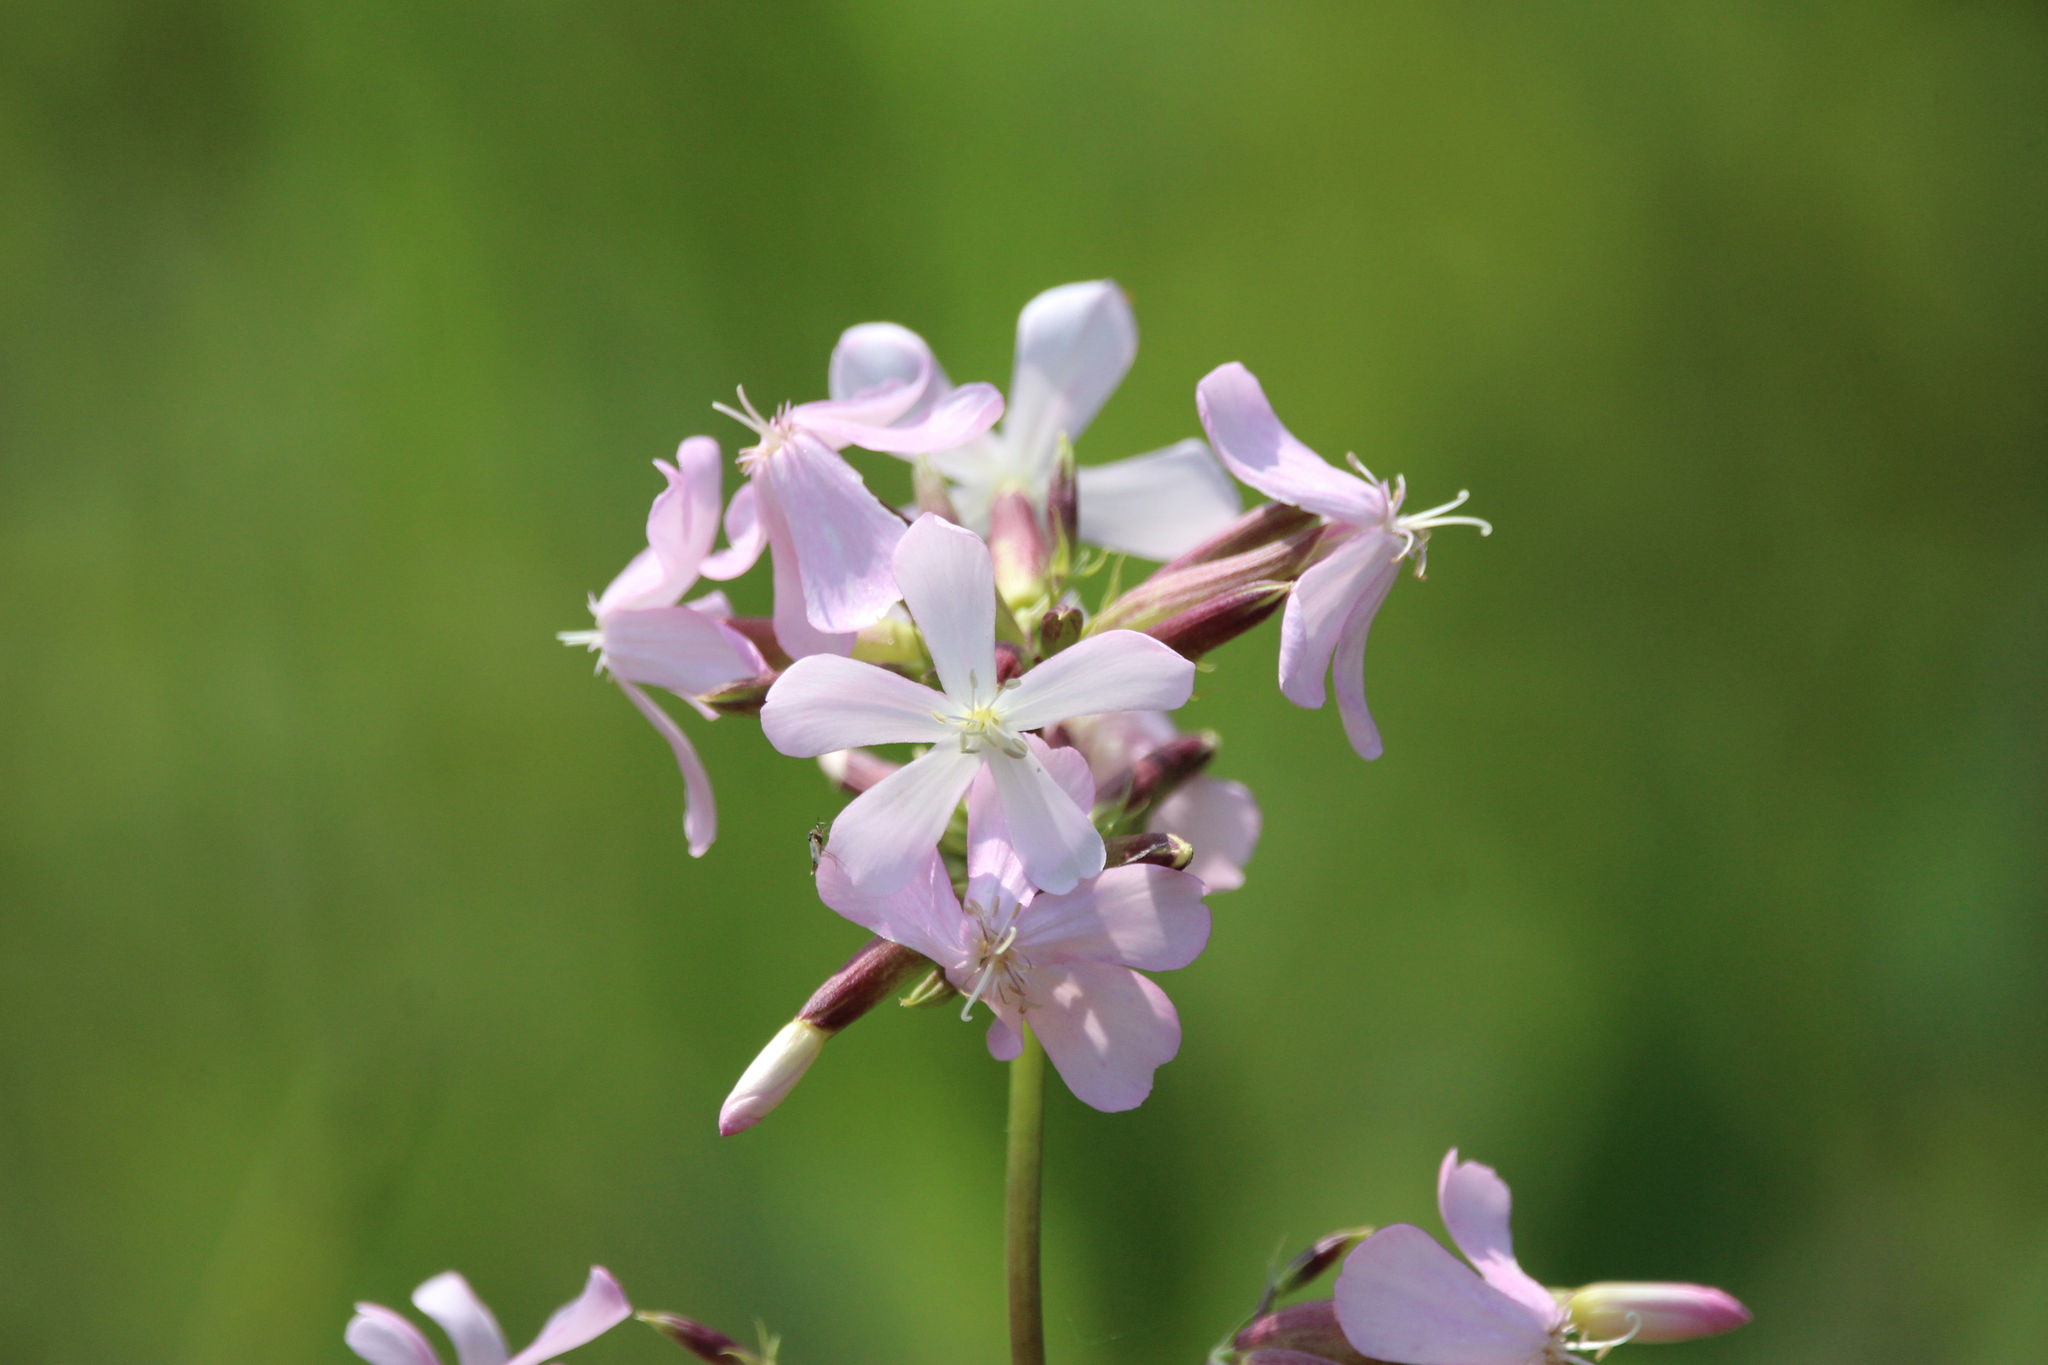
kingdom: Plantae
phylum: Tracheophyta
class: Magnoliopsida
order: Caryophyllales
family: Caryophyllaceae
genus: Saponaria
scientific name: Saponaria officinalis
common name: Soapwort
